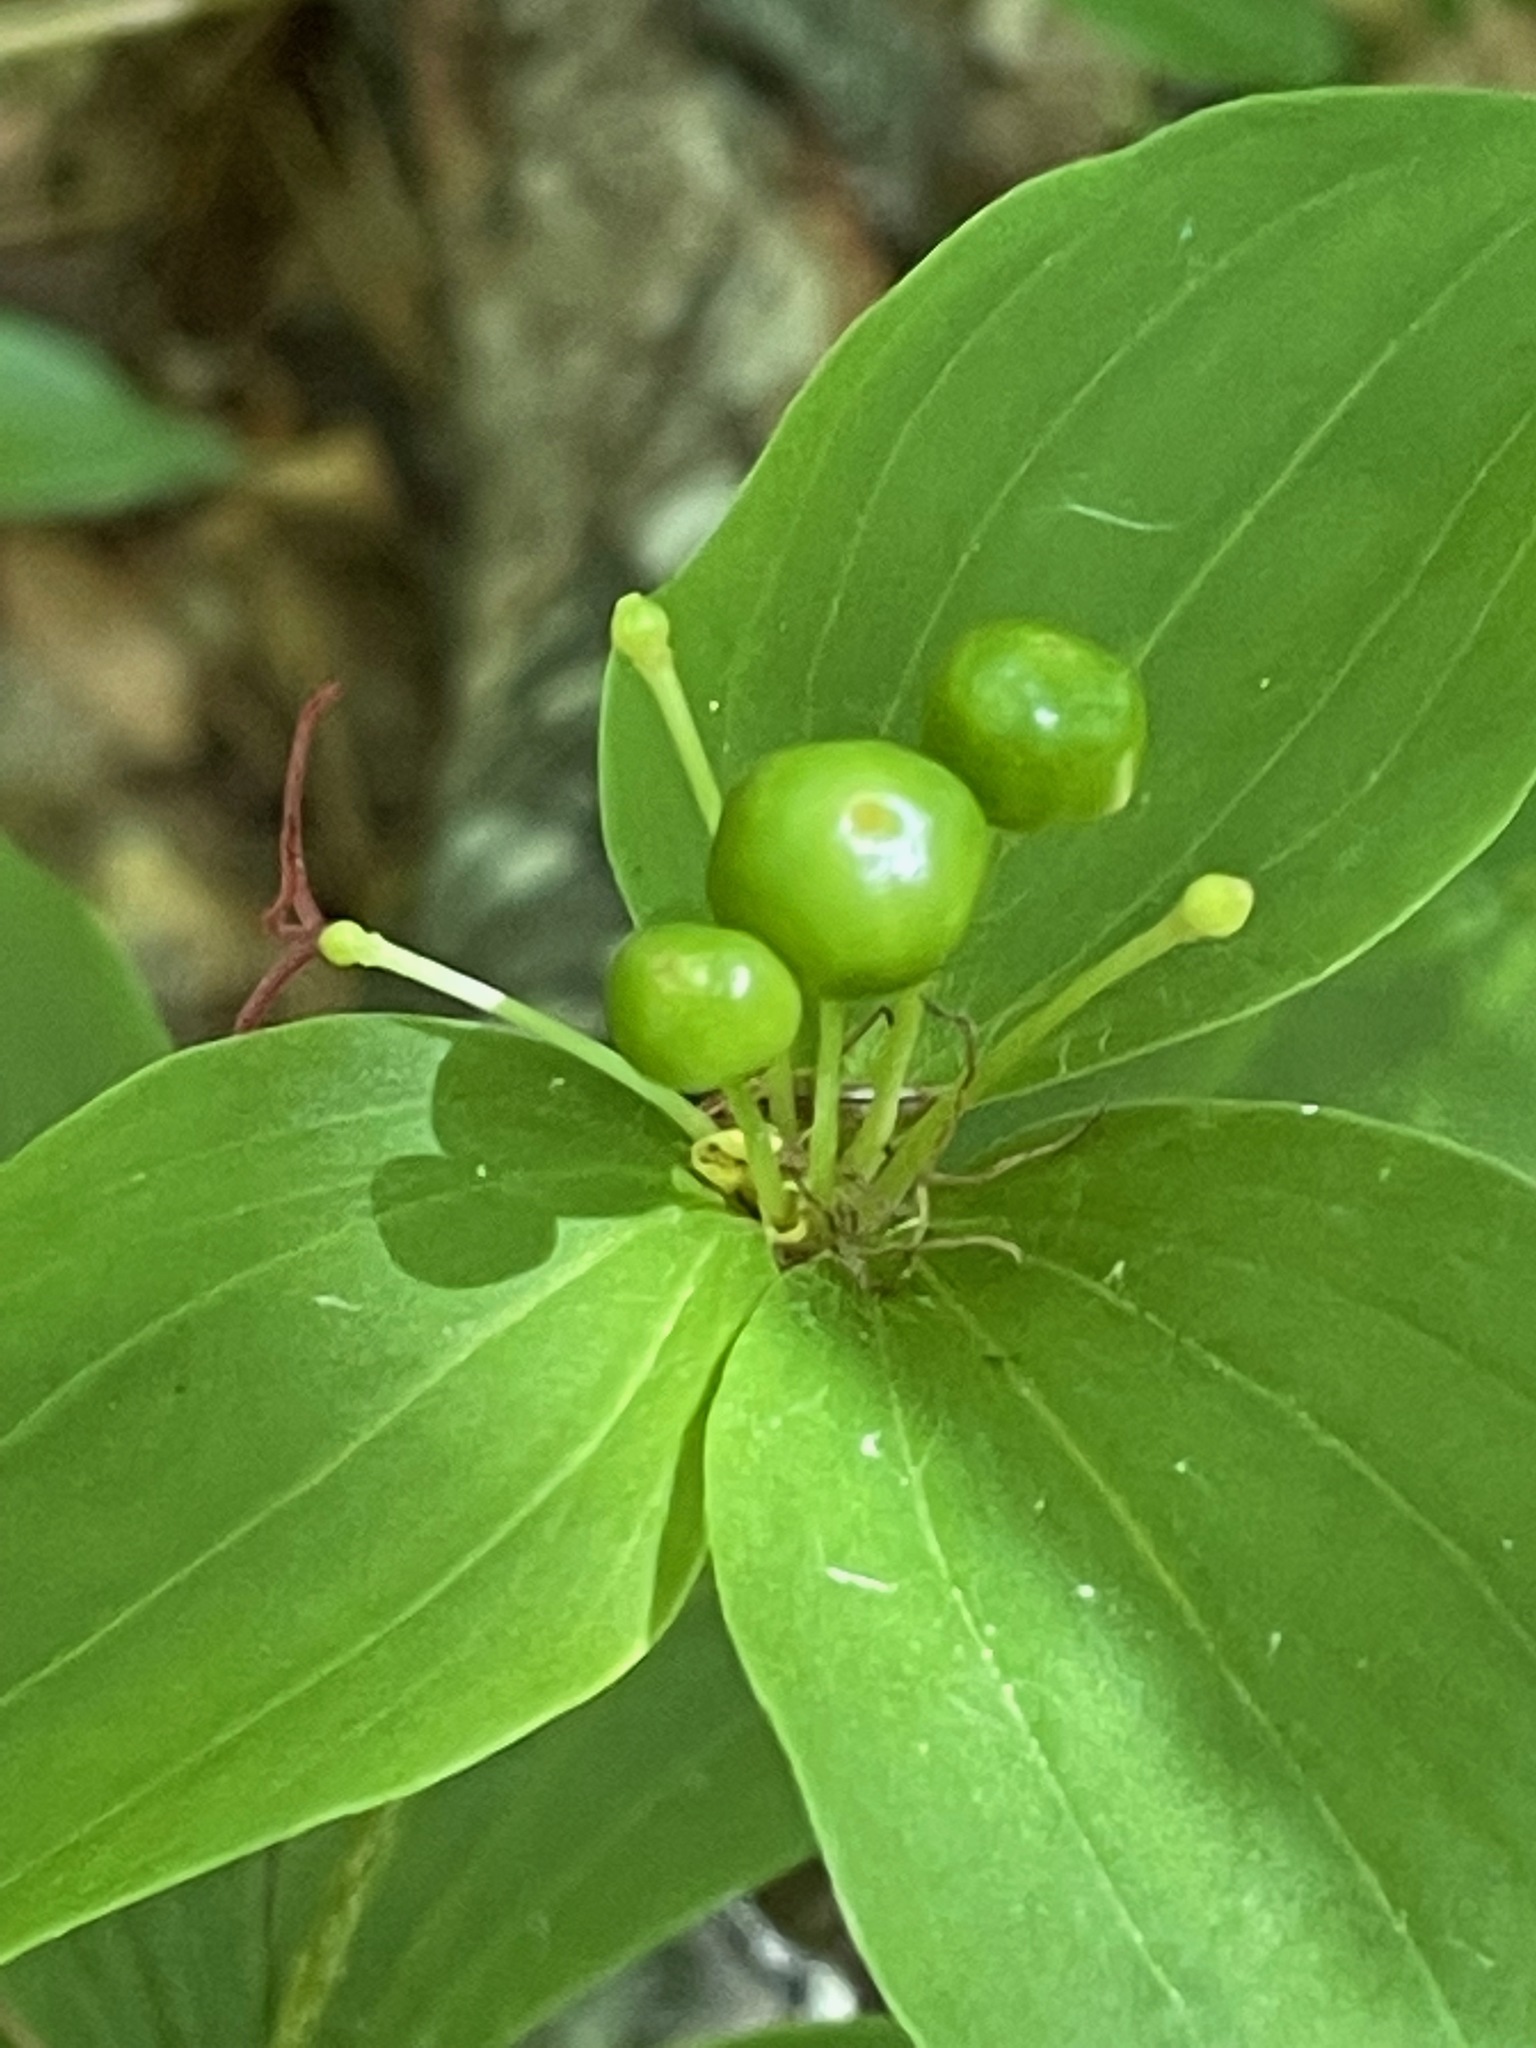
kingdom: Plantae
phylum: Tracheophyta
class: Liliopsida
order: Liliales
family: Liliaceae
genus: Medeola
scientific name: Medeola virginiana
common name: Indian cucumber-root
